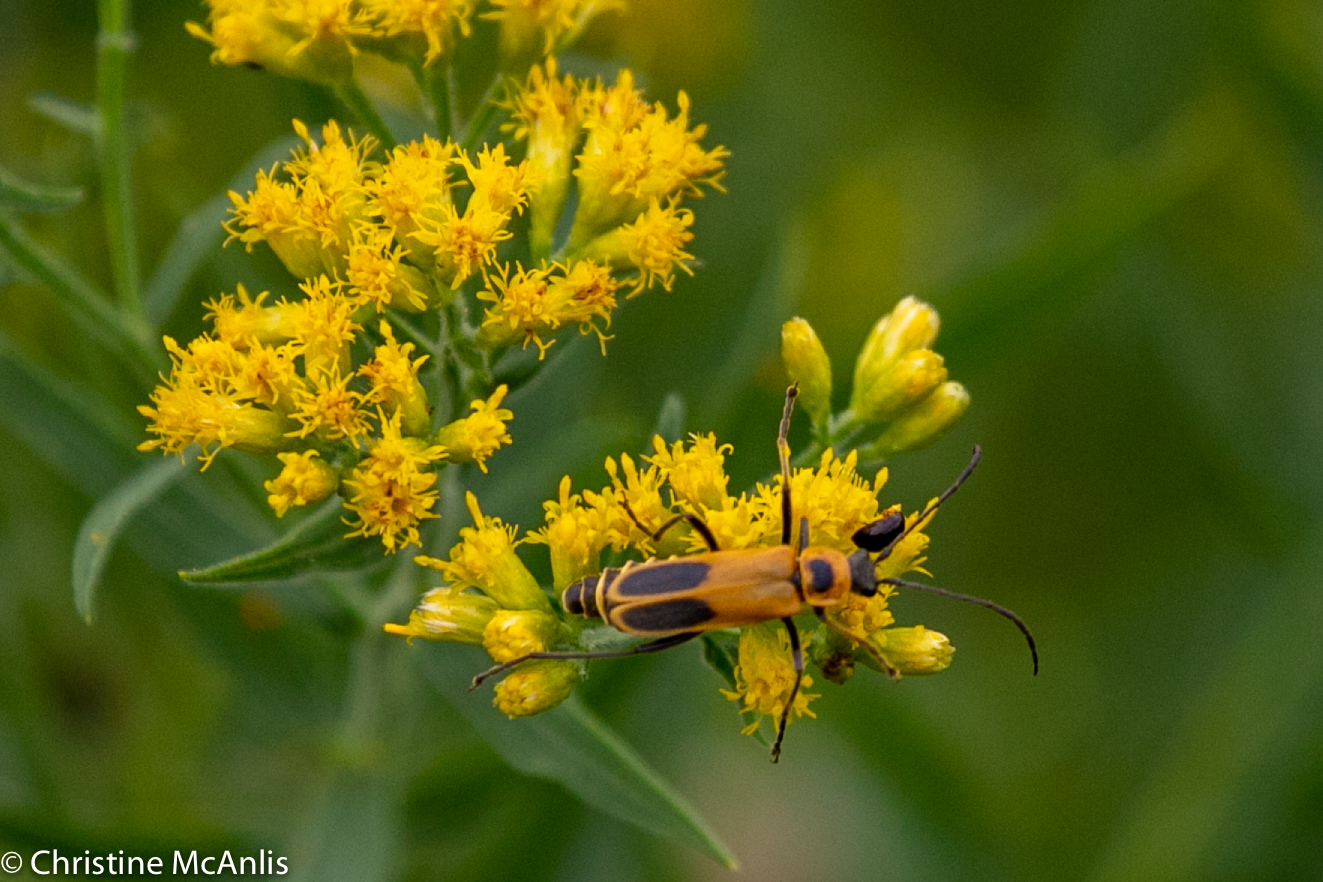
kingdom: Animalia
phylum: Arthropoda
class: Insecta
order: Coleoptera
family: Cantharidae
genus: Chauliognathus
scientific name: Chauliognathus pensylvanicus
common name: Goldenrod soldier beetle
